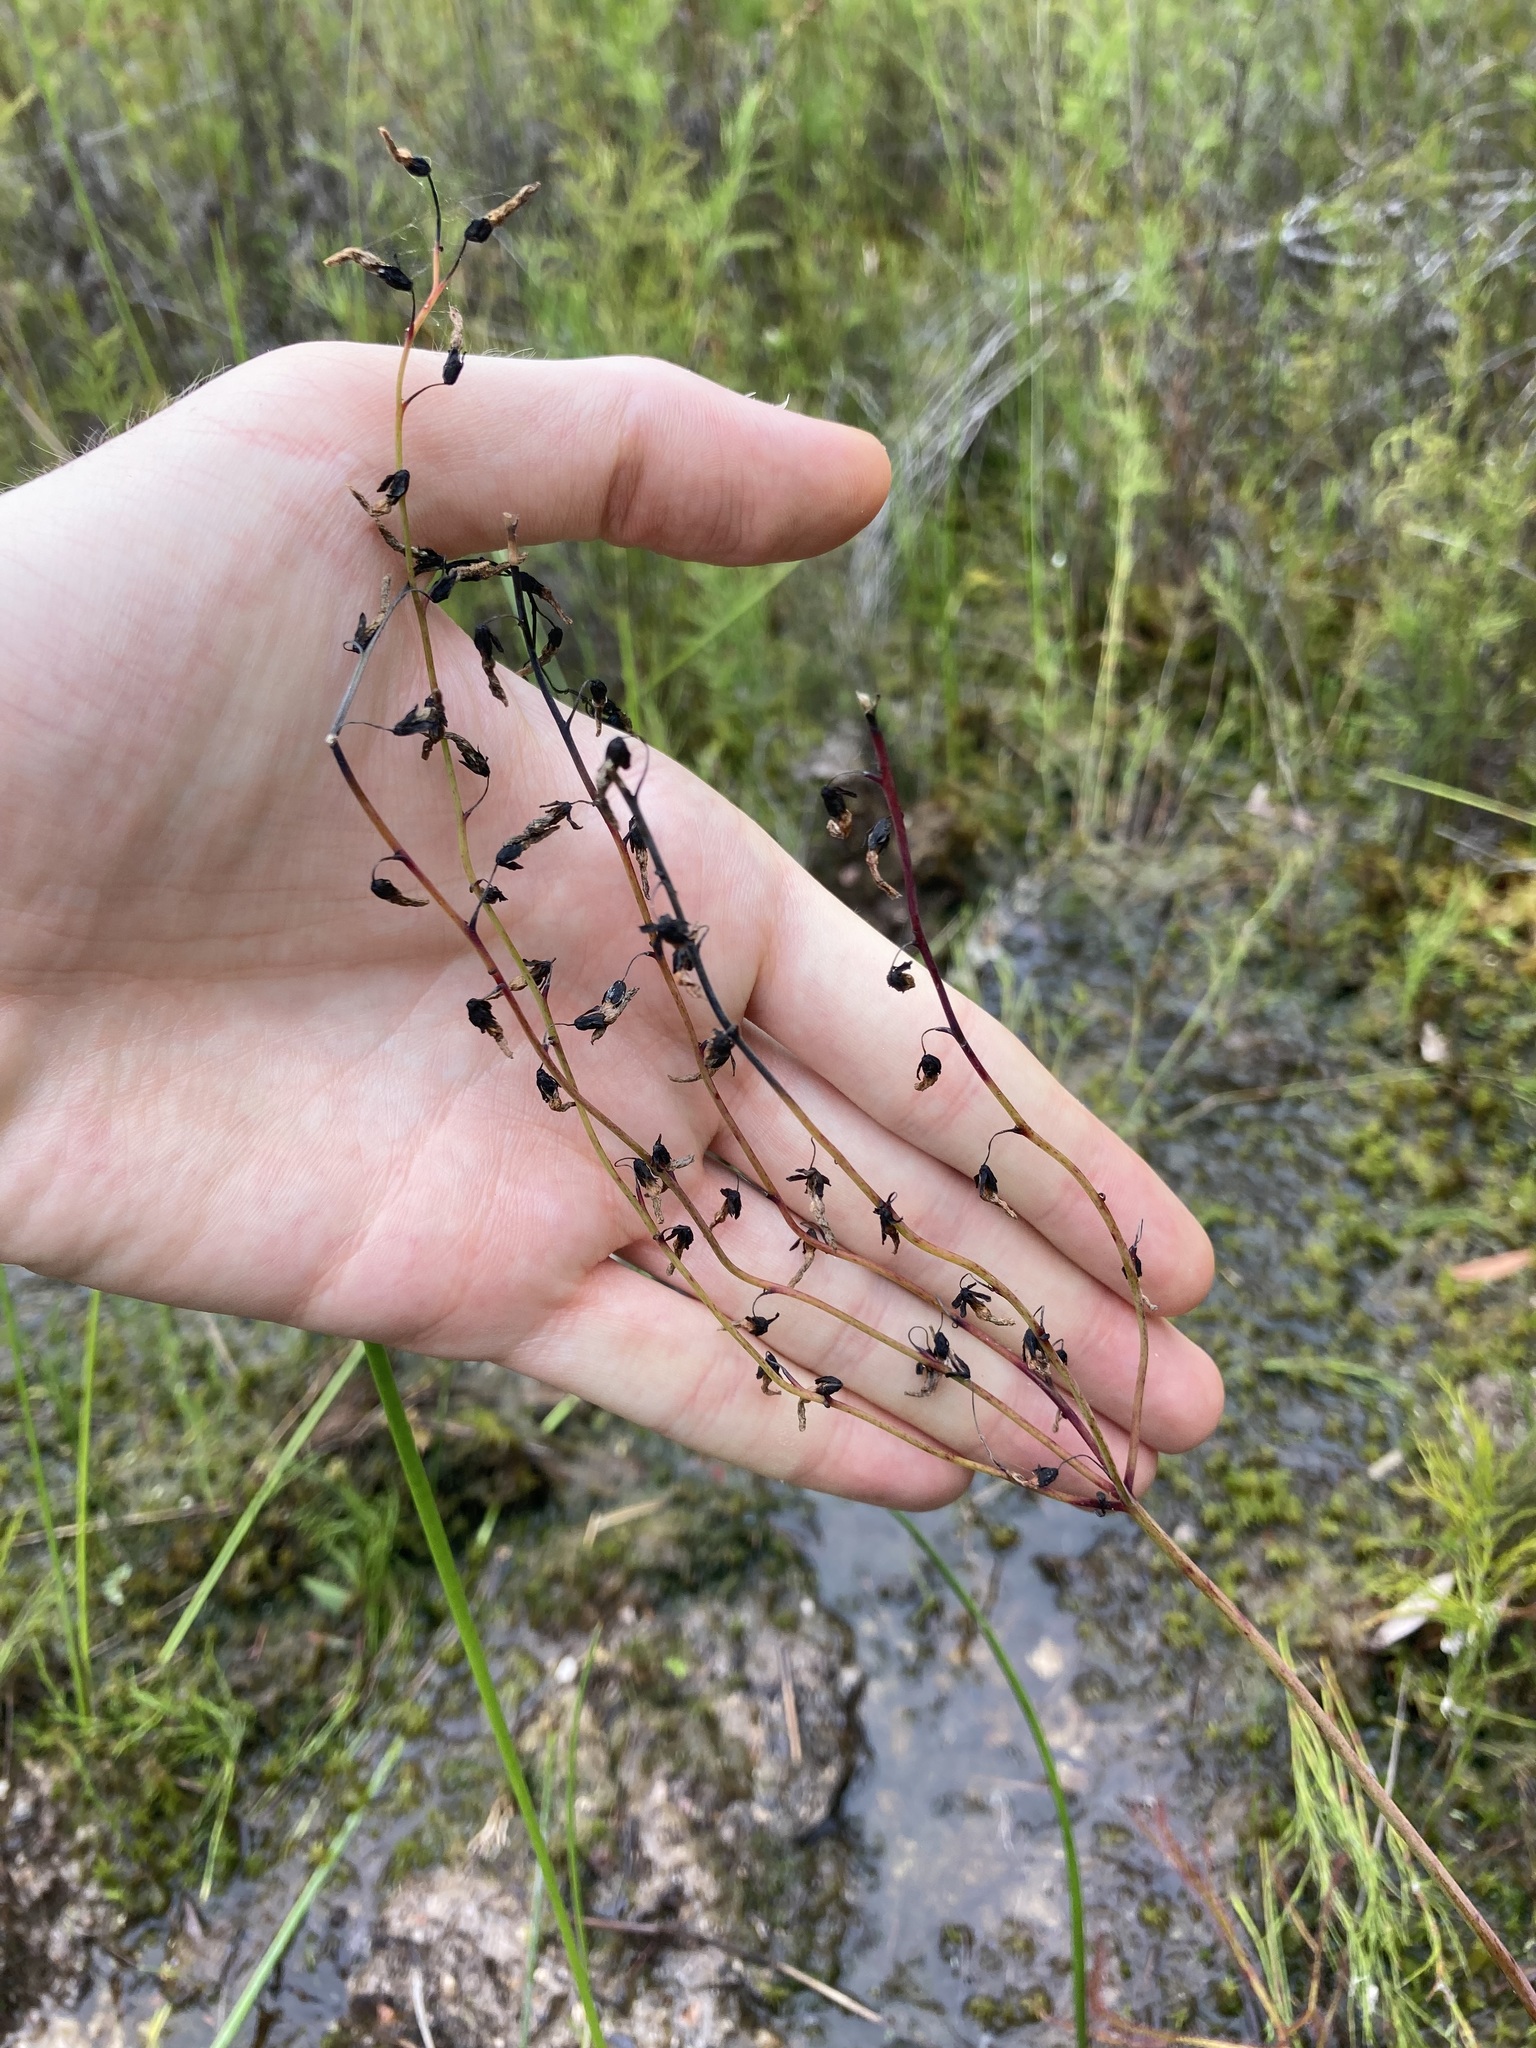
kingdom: Plantae
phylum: Tracheophyta
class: Magnoliopsida
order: Caryophyllales
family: Droseraceae
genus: Drosera
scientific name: Drosera binata
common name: Forked sundew
